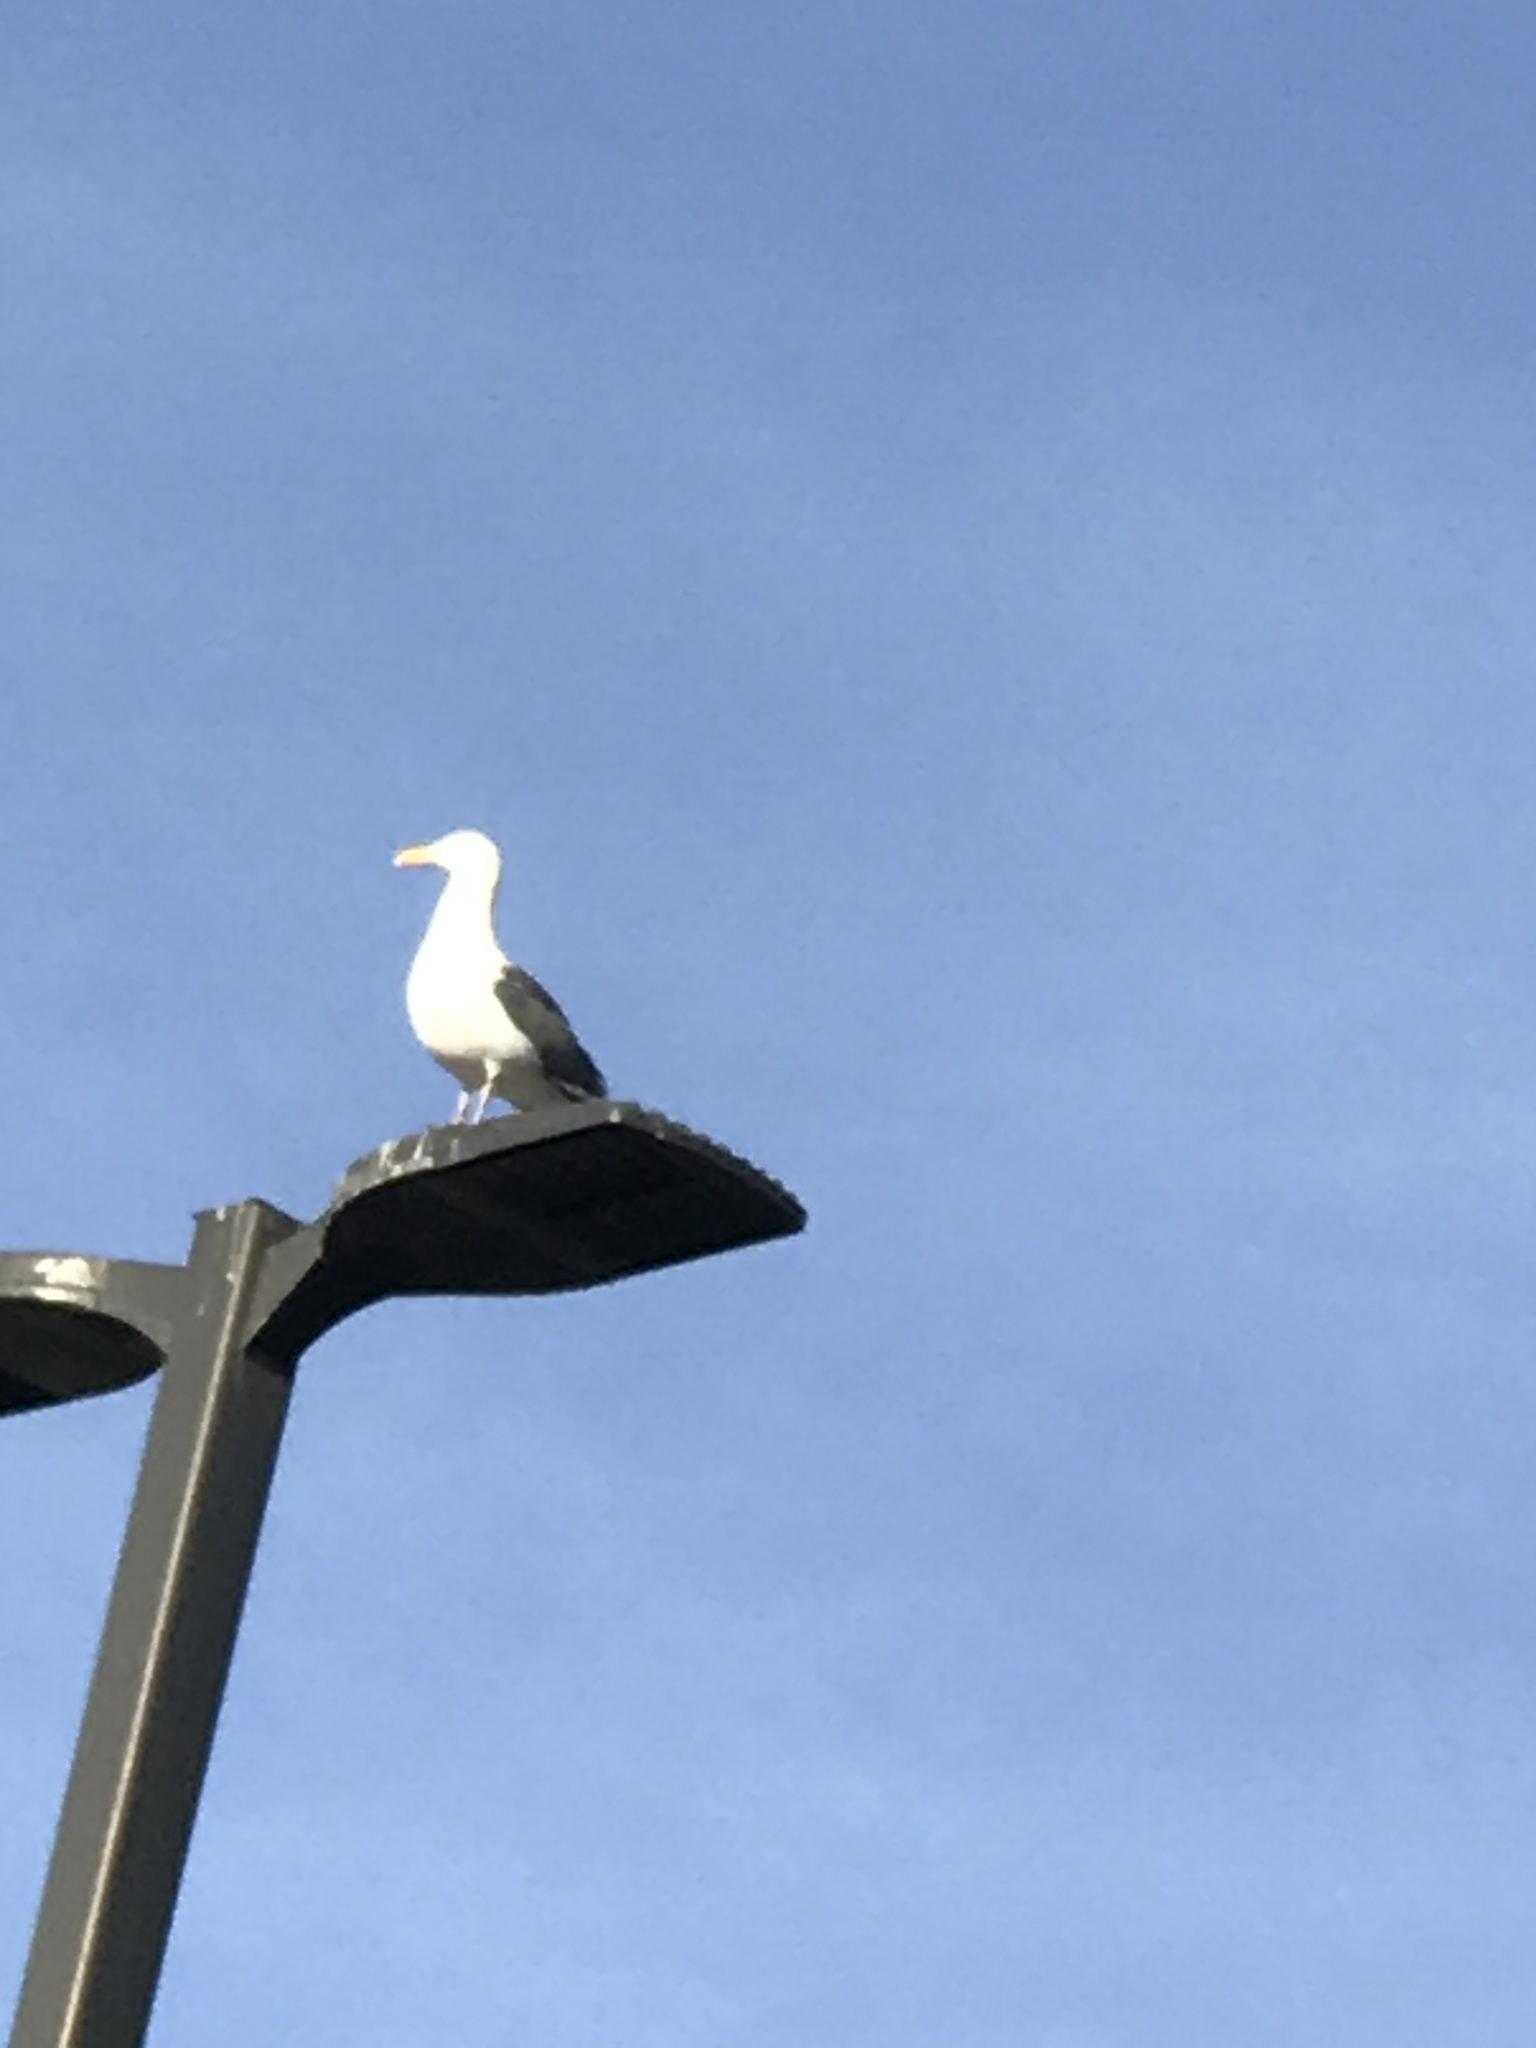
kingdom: Animalia
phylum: Chordata
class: Aves
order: Charadriiformes
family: Laridae
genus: Larus
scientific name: Larus occidentalis
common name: Western gull
